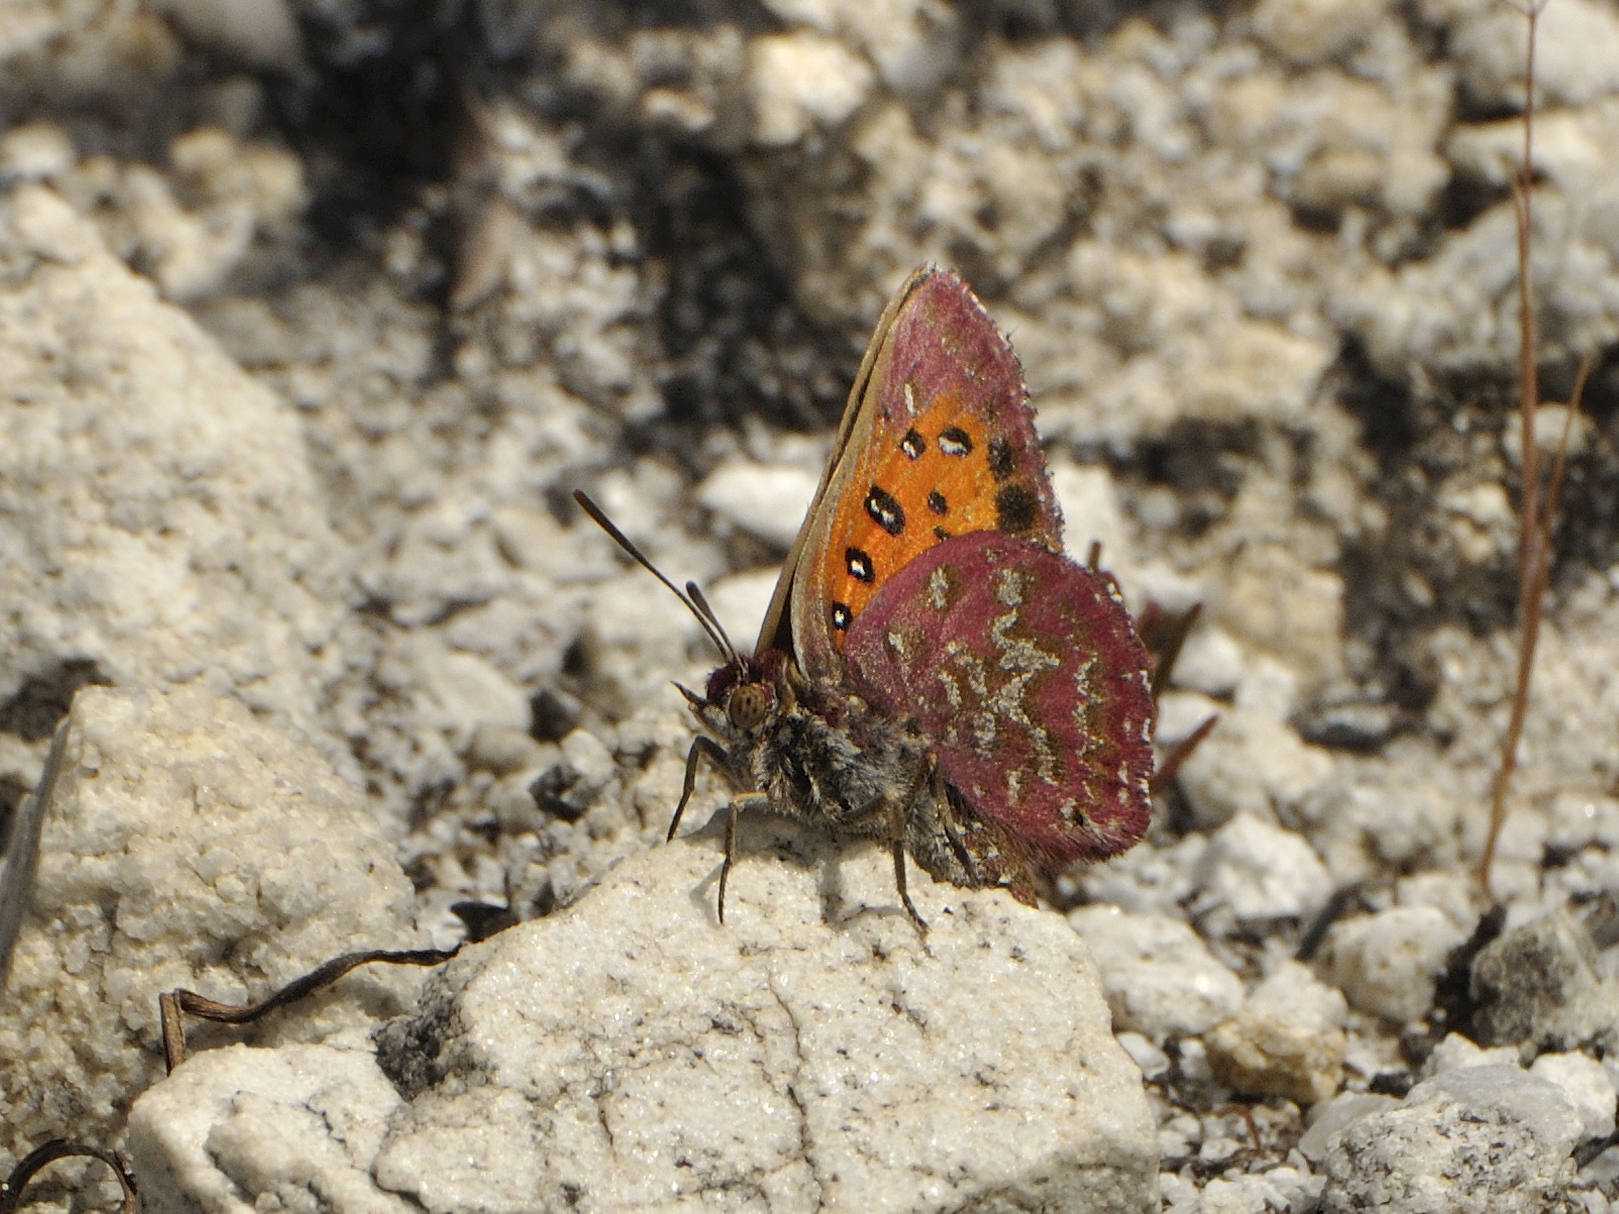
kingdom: Animalia
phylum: Arthropoda
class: Insecta
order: Lepidoptera
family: Lycaenidae
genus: Aloeides
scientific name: Aloeides pallida
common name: Giant copper
